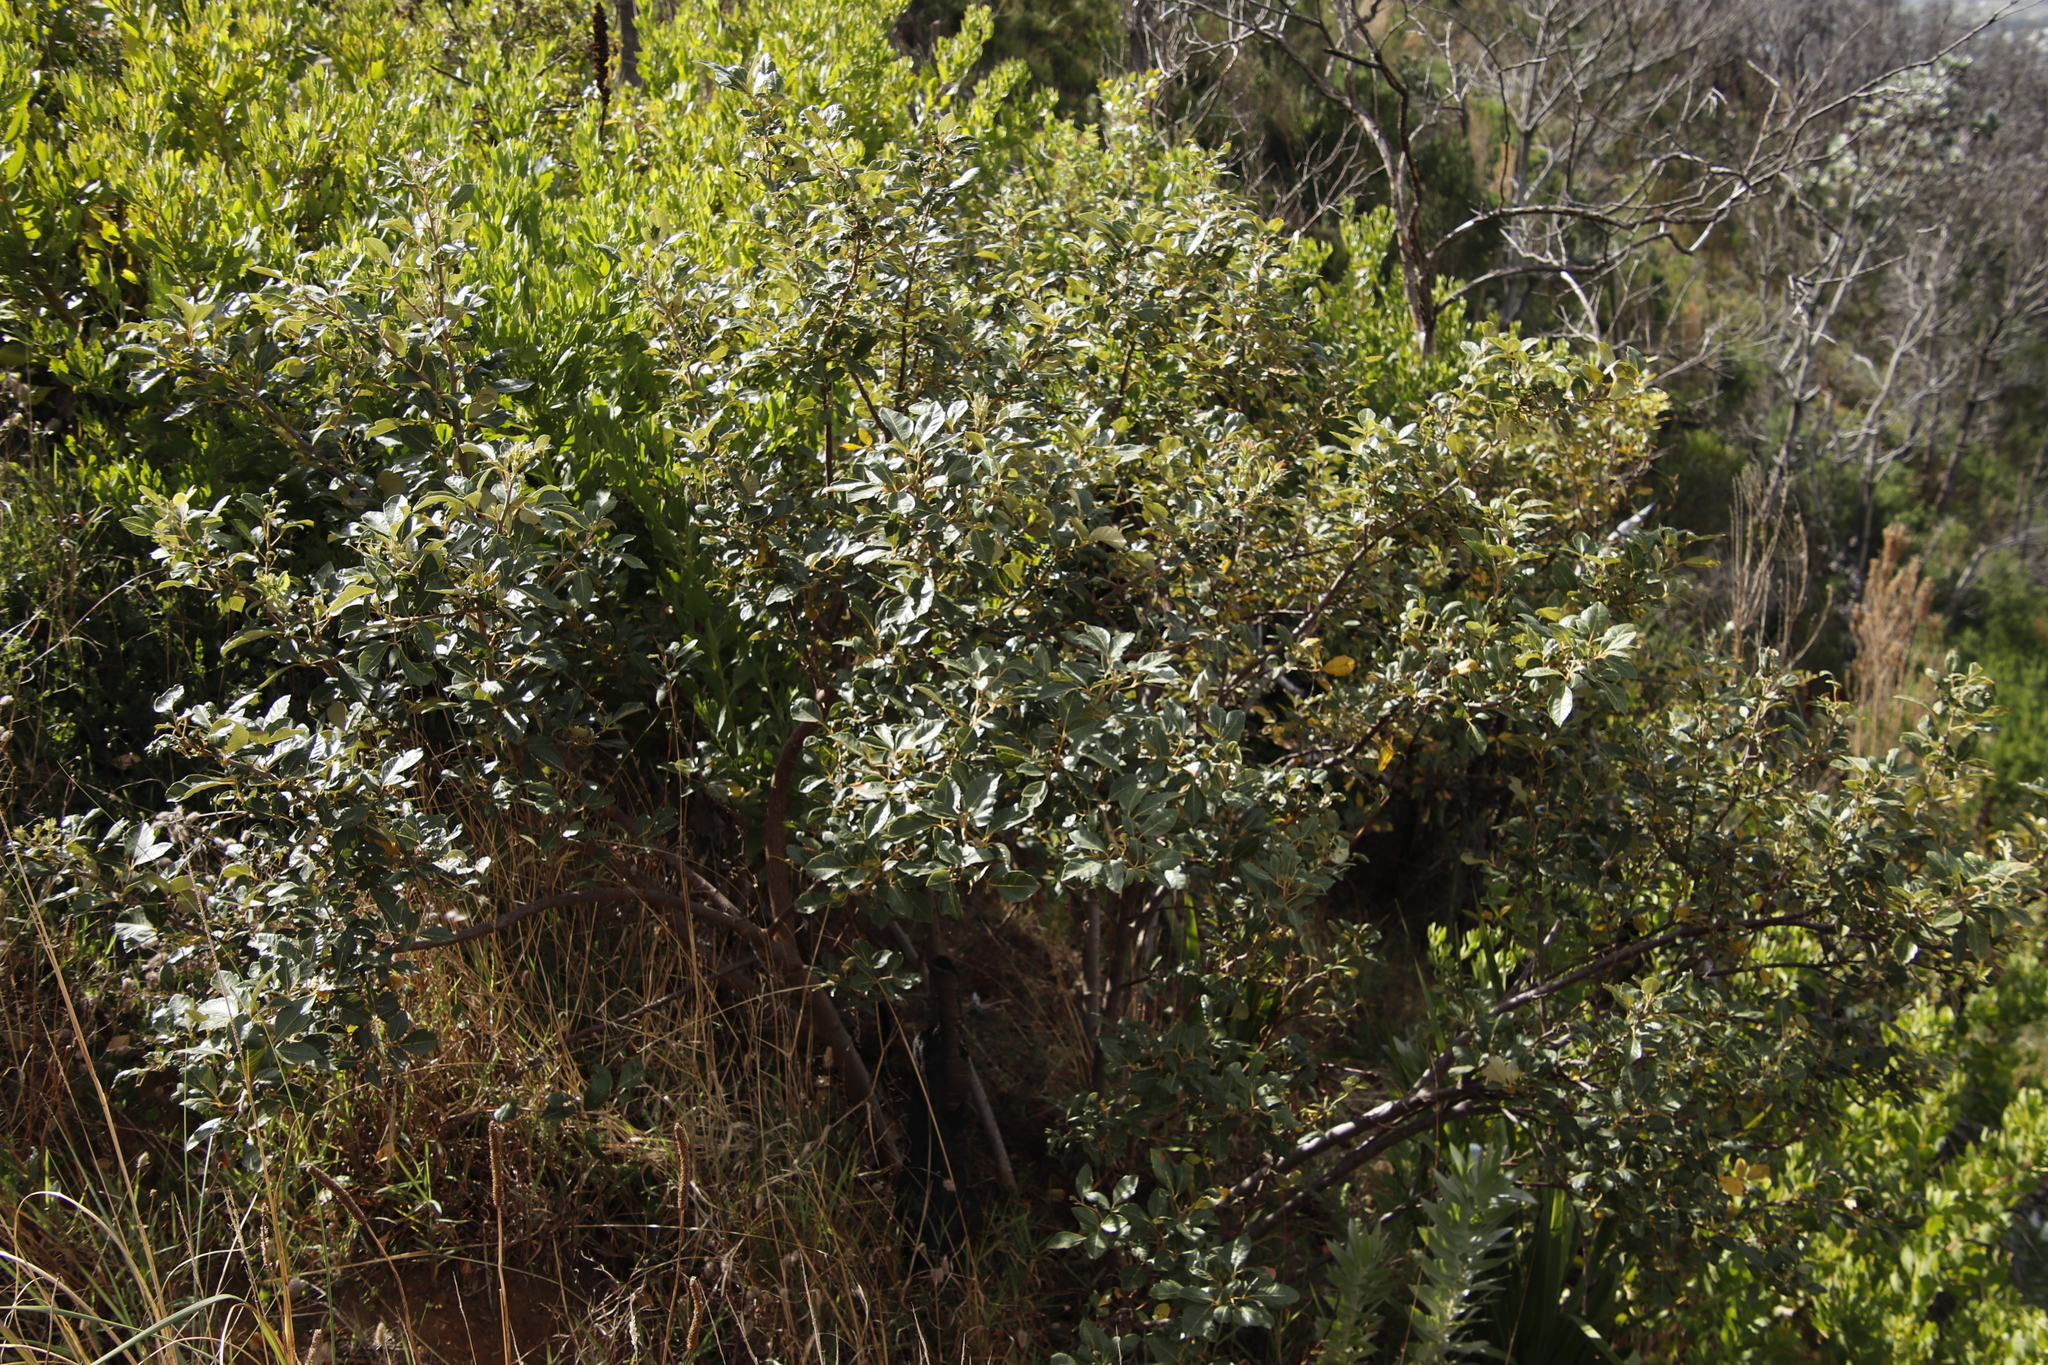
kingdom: Plantae
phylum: Tracheophyta
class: Magnoliopsida
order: Sapindales
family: Anacardiaceae
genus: Searsia
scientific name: Searsia tomentosa
